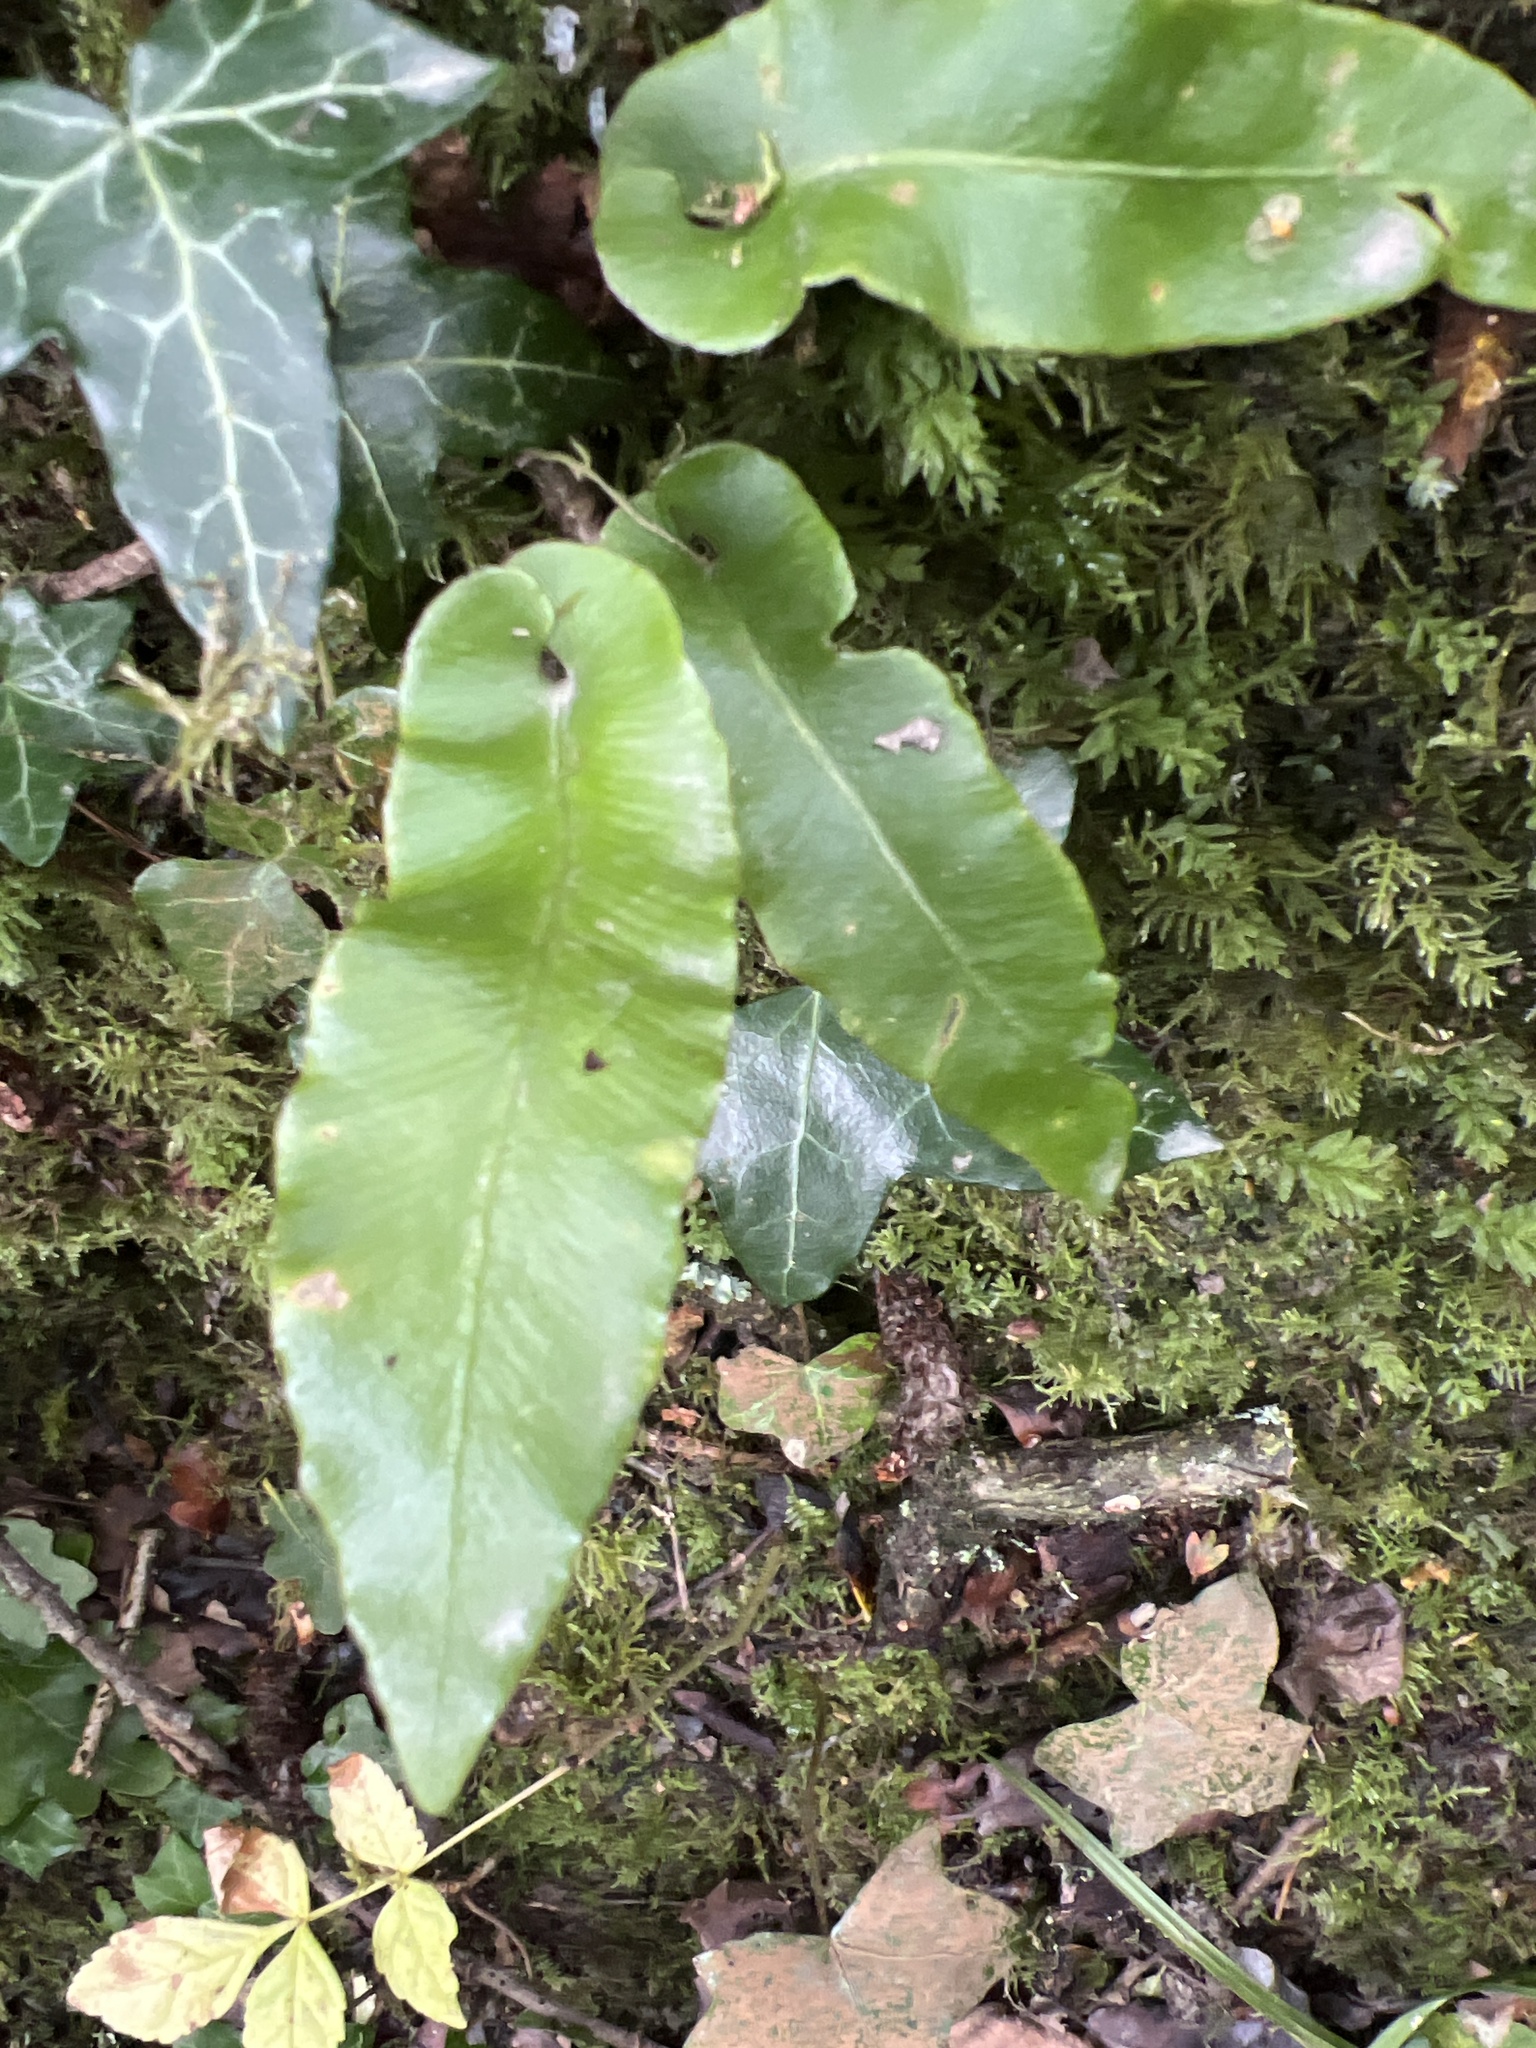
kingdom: Plantae
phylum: Tracheophyta
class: Polypodiopsida
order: Polypodiales
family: Aspleniaceae
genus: Asplenium
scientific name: Asplenium scolopendrium
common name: Hart's-tongue fern
